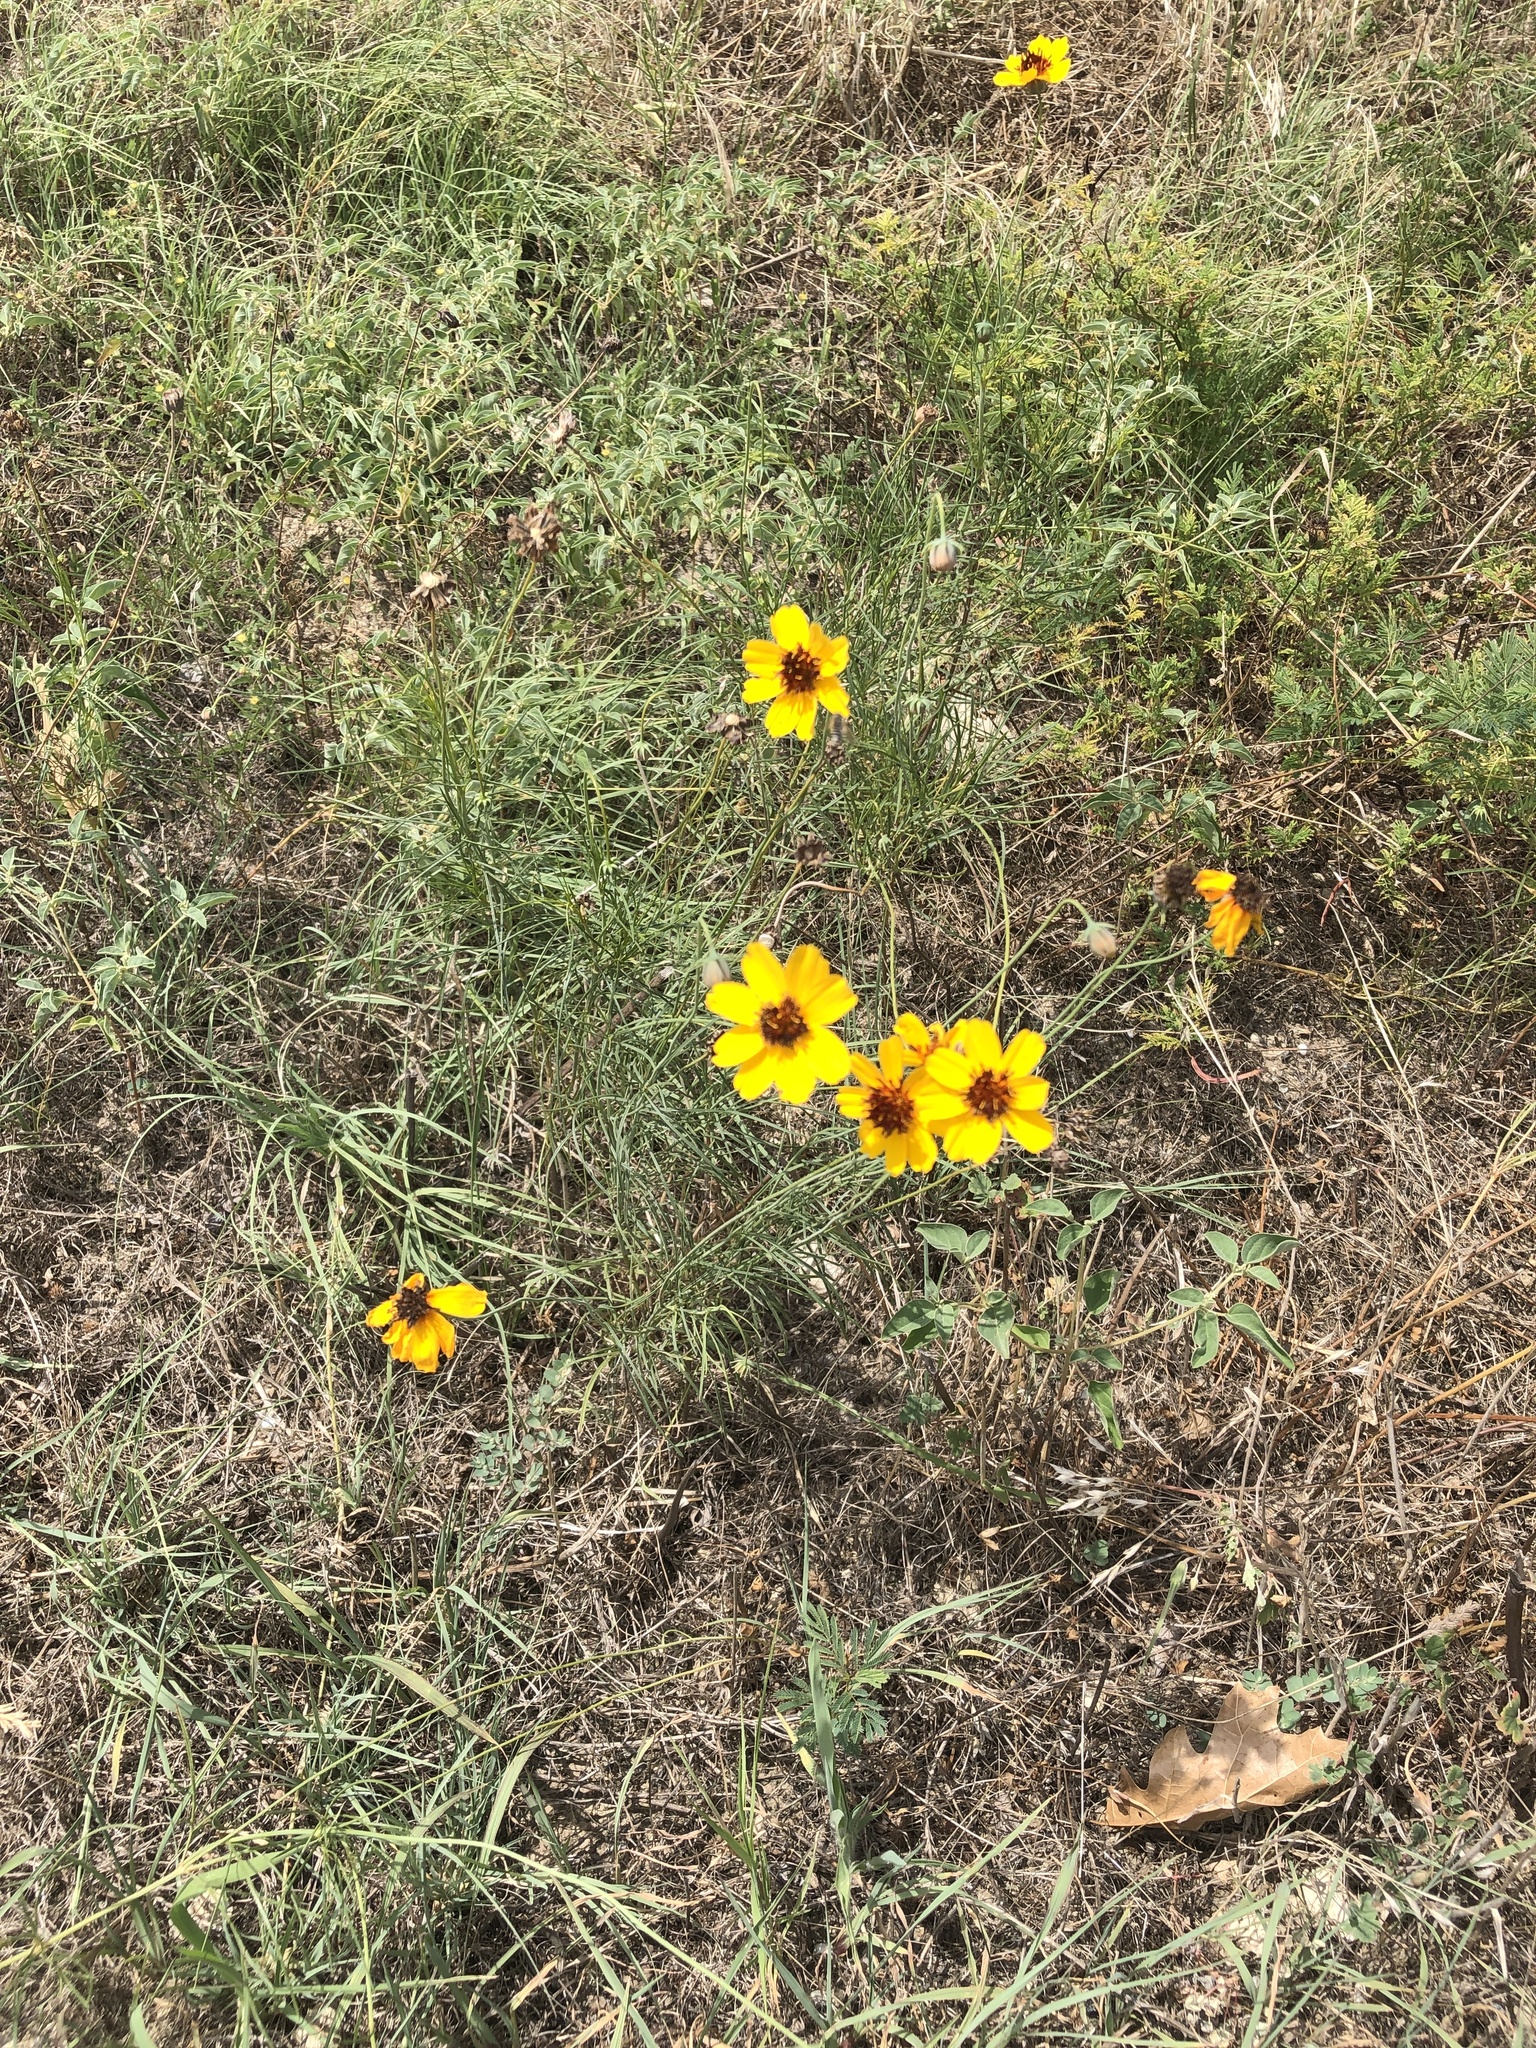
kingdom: Plantae
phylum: Tracheophyta
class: Magnoliopsida
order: Asterales
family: Asteraceae
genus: Thelesperma
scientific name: Thelesperma filifolium
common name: Stiff greenthread
